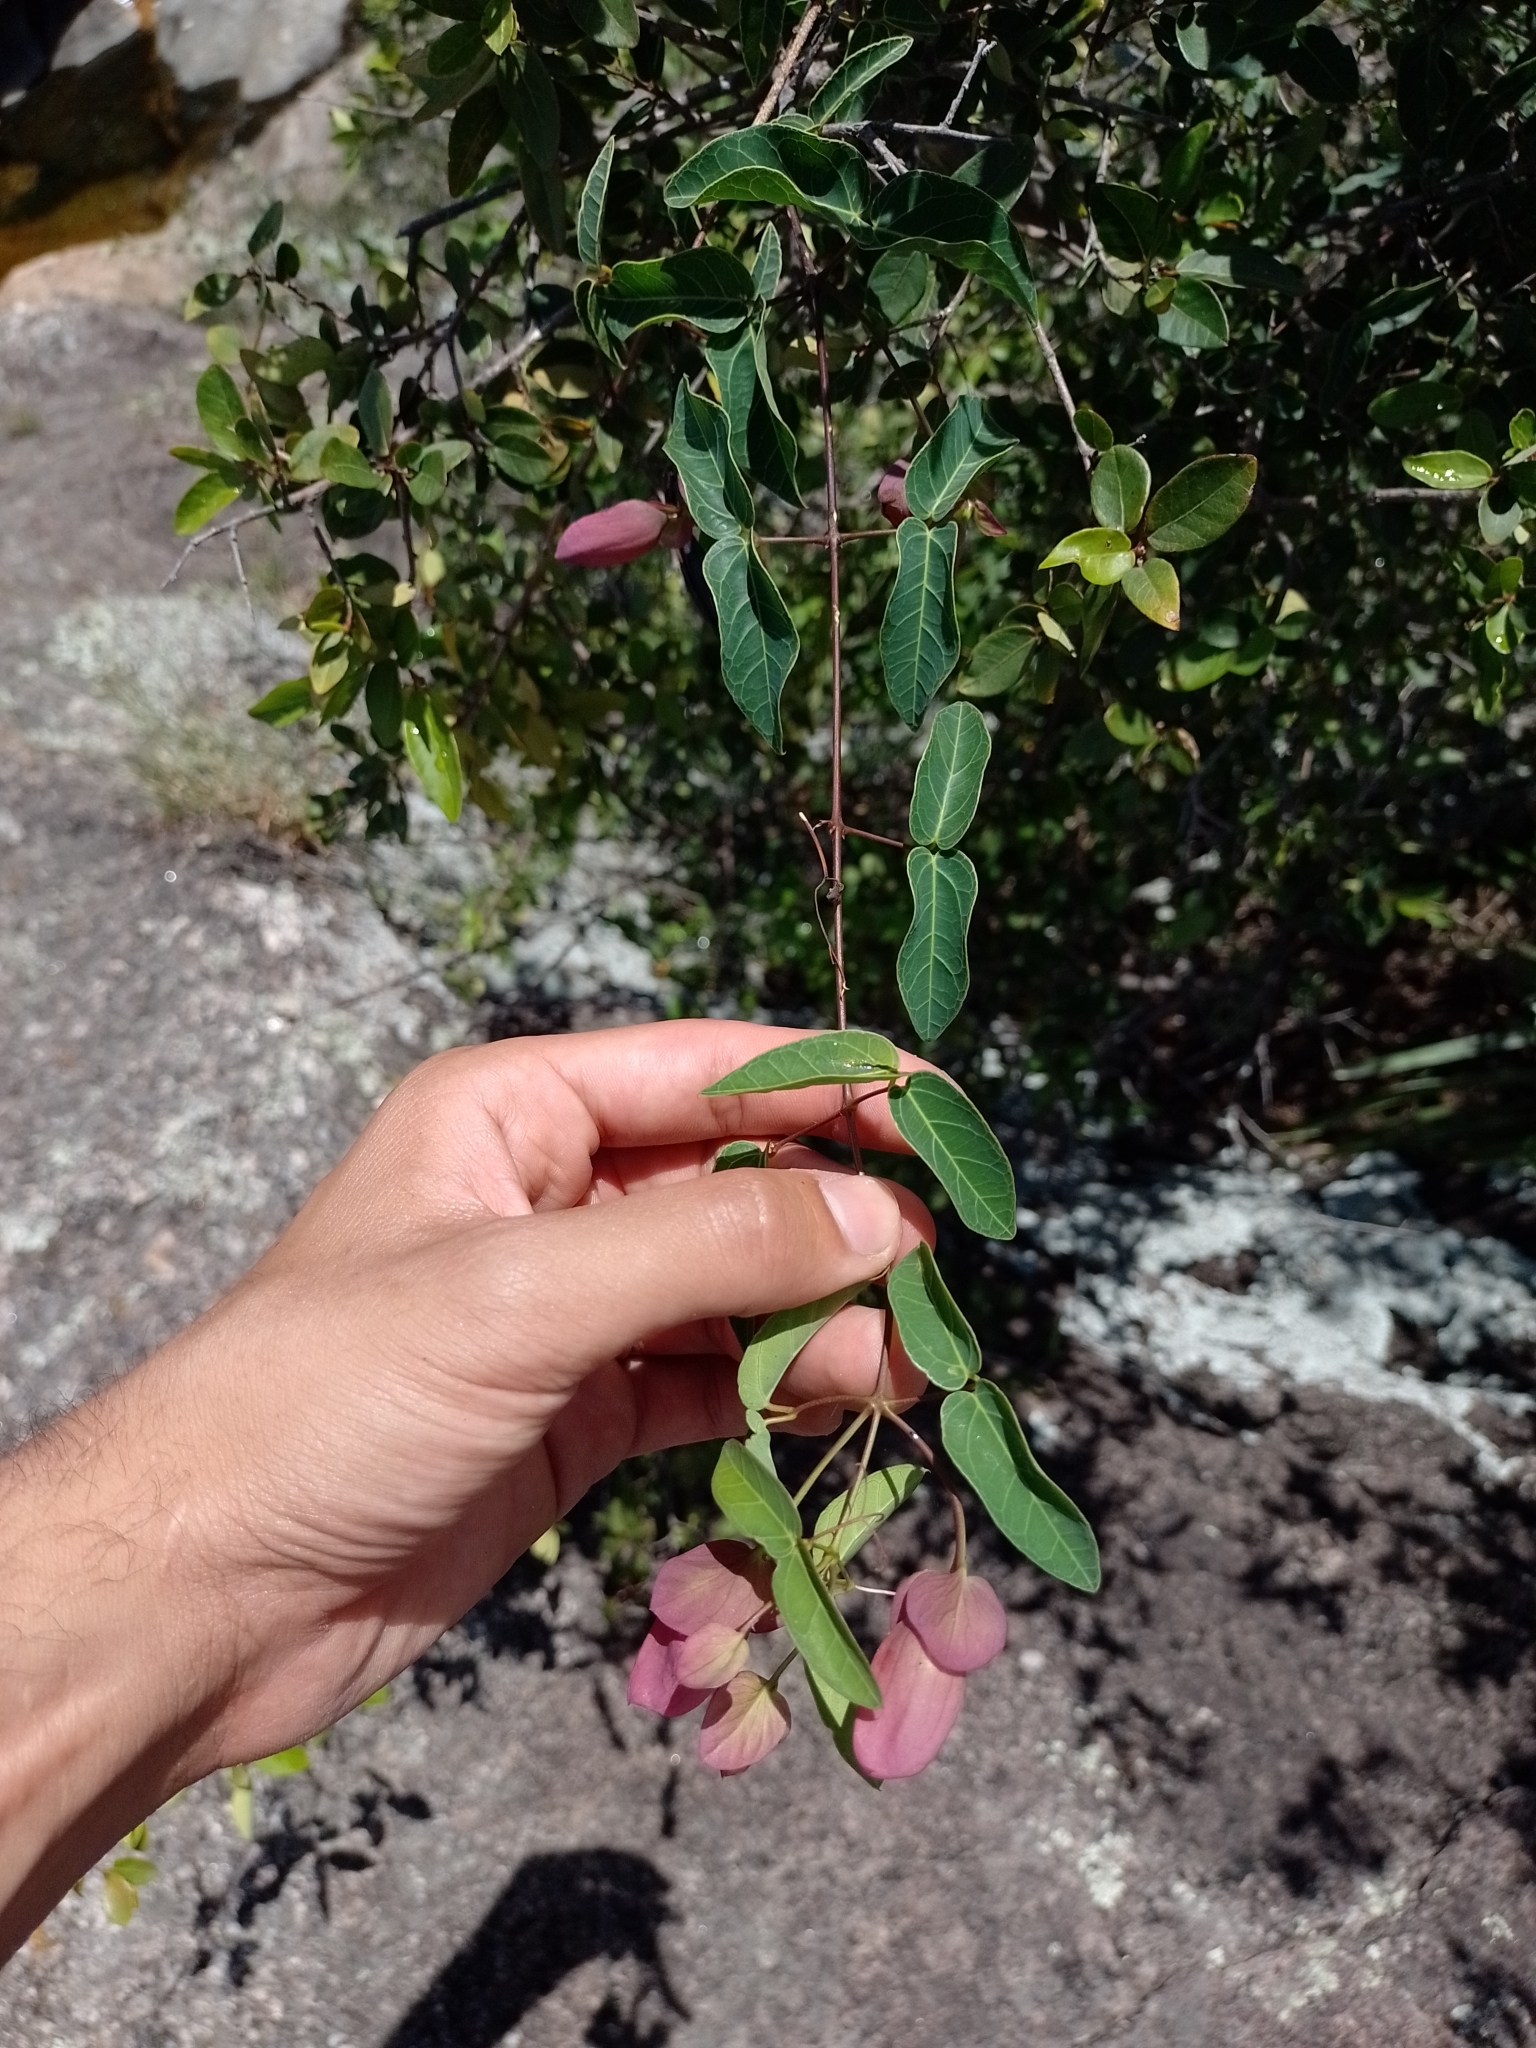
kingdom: Plantae
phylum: Tracheophyta
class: Magnoliopsida
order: Lamiales
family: Bignoniaceae
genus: Dolichandra
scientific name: Dolichandra cynanchoides
